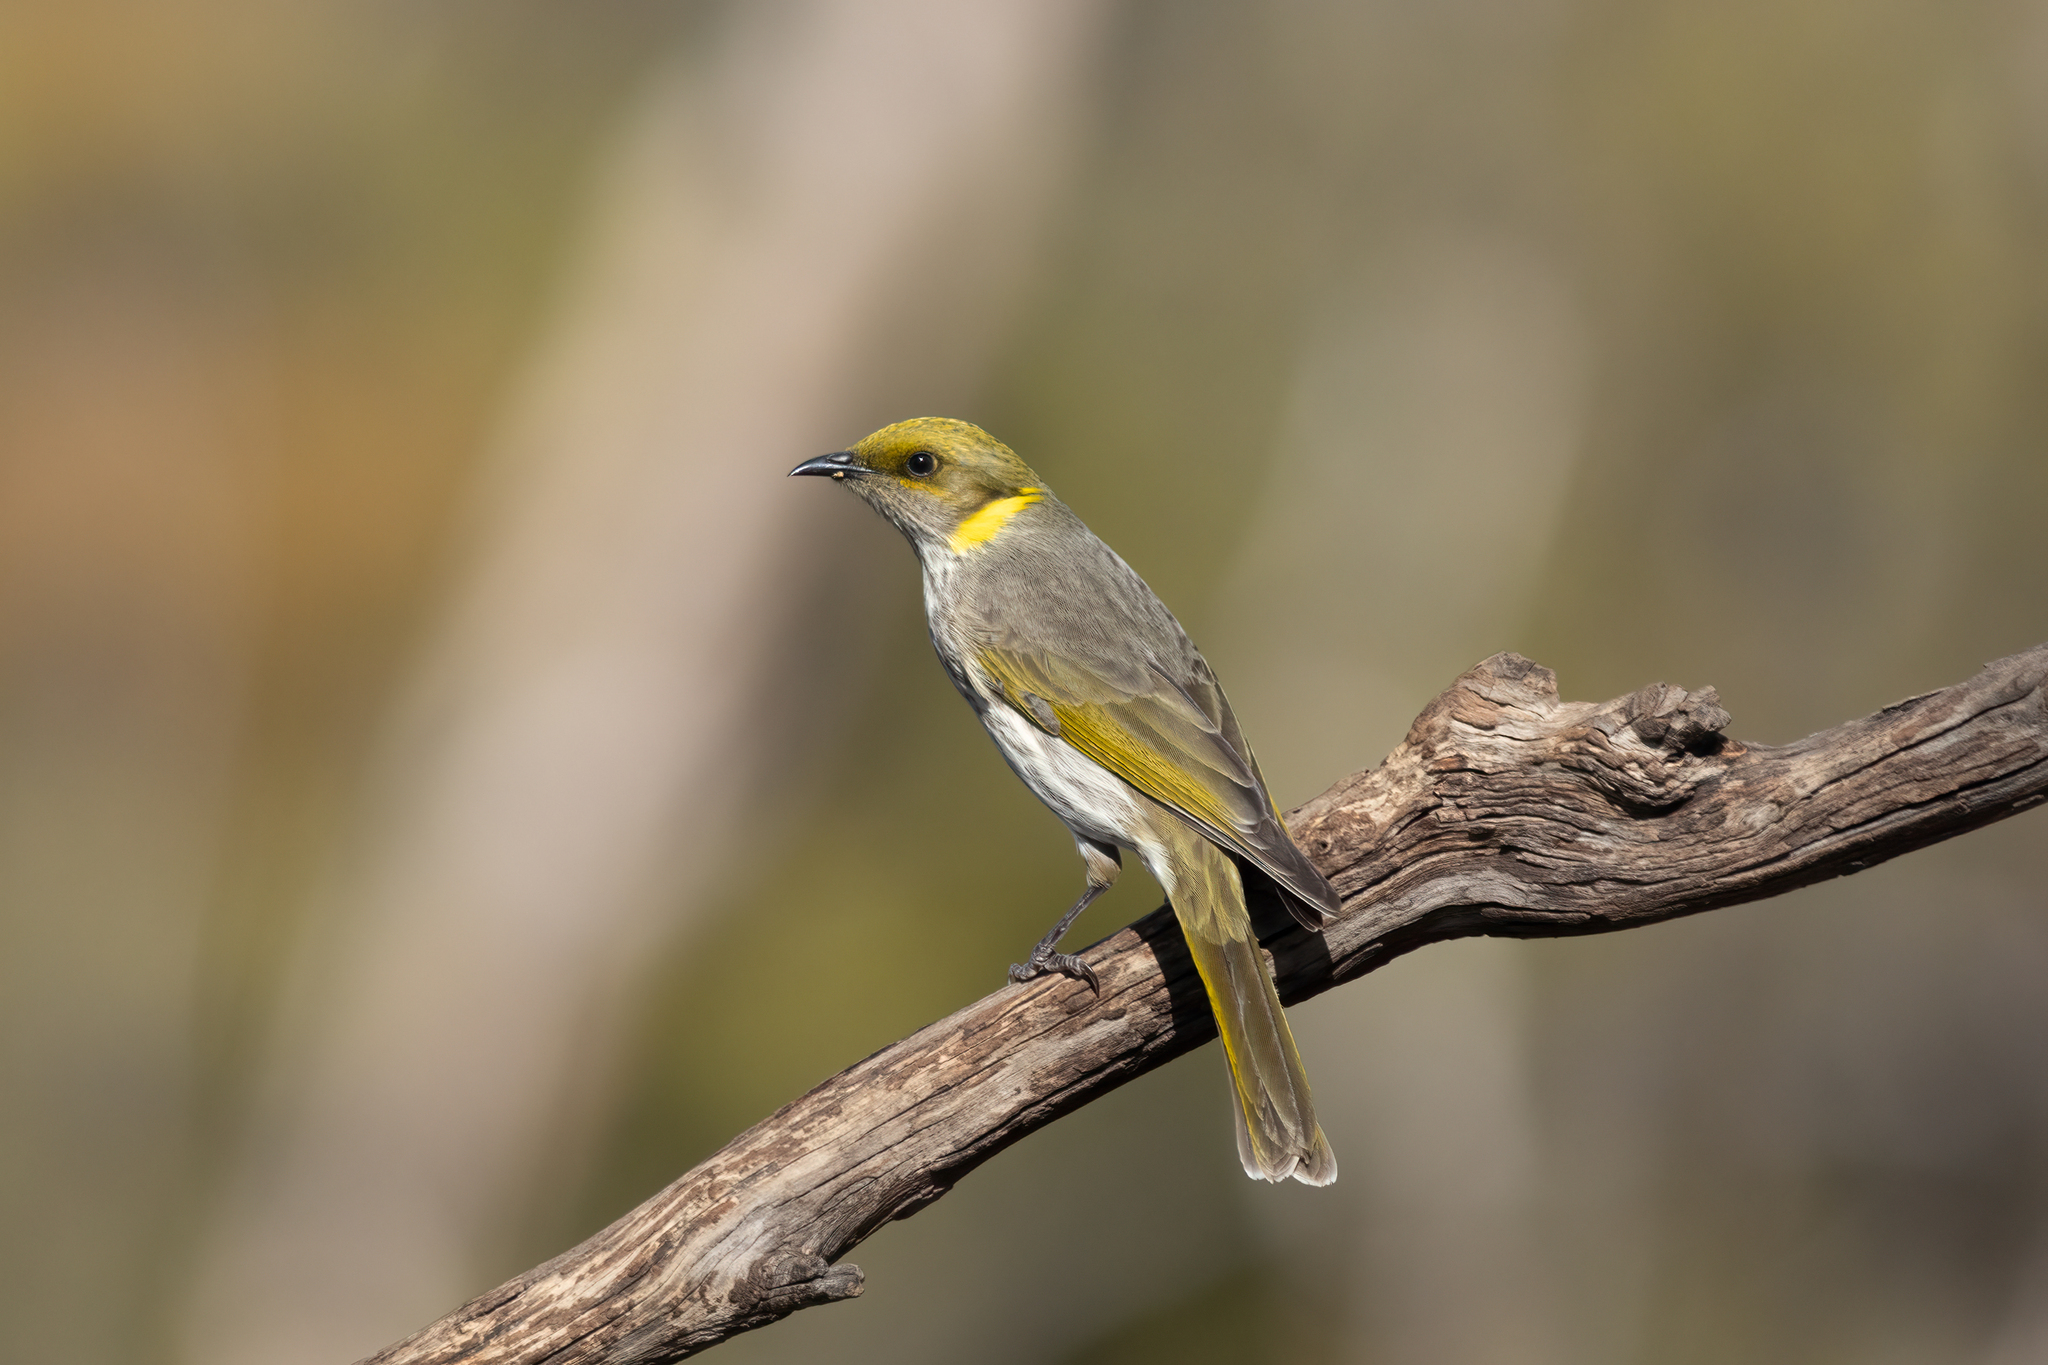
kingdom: Animalia
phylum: Chordata
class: Aves
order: Passeriformes
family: Meliphagidae
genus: Ptilotula
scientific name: Ptilotula ornata
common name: Yellow-plumed honeyeater
